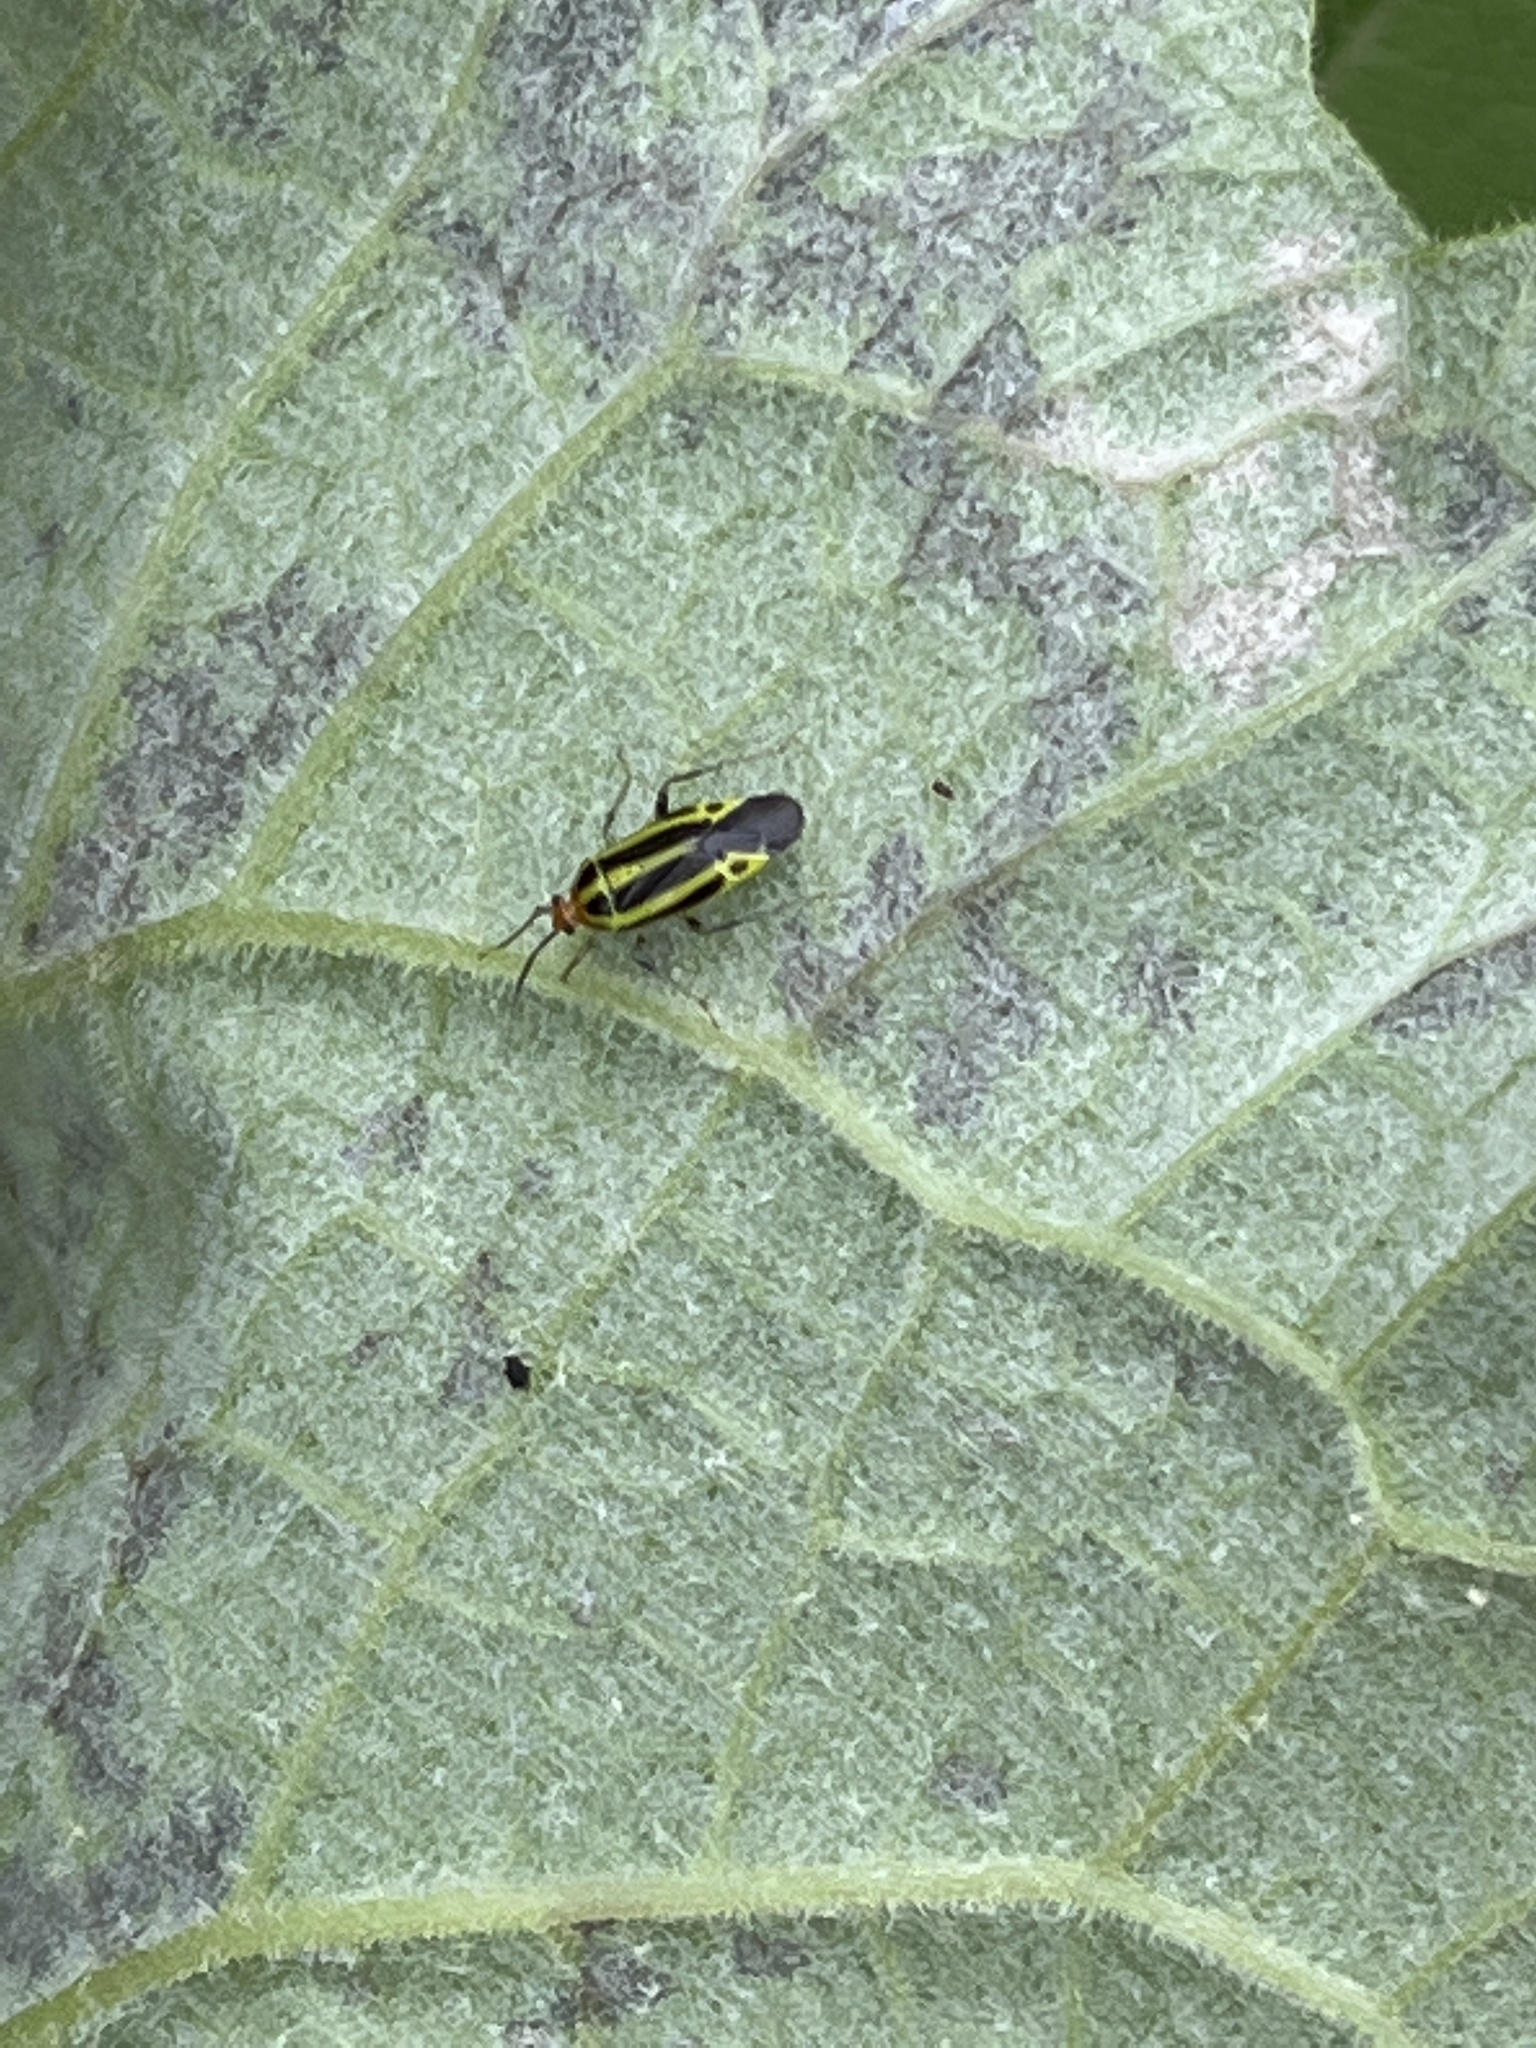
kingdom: Animalia
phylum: Arthropoda
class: Insecta
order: Hemiptera
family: Miridae
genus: Poecilocapsus
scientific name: Poecilocapsus lineatus
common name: Four-lined plant bug
